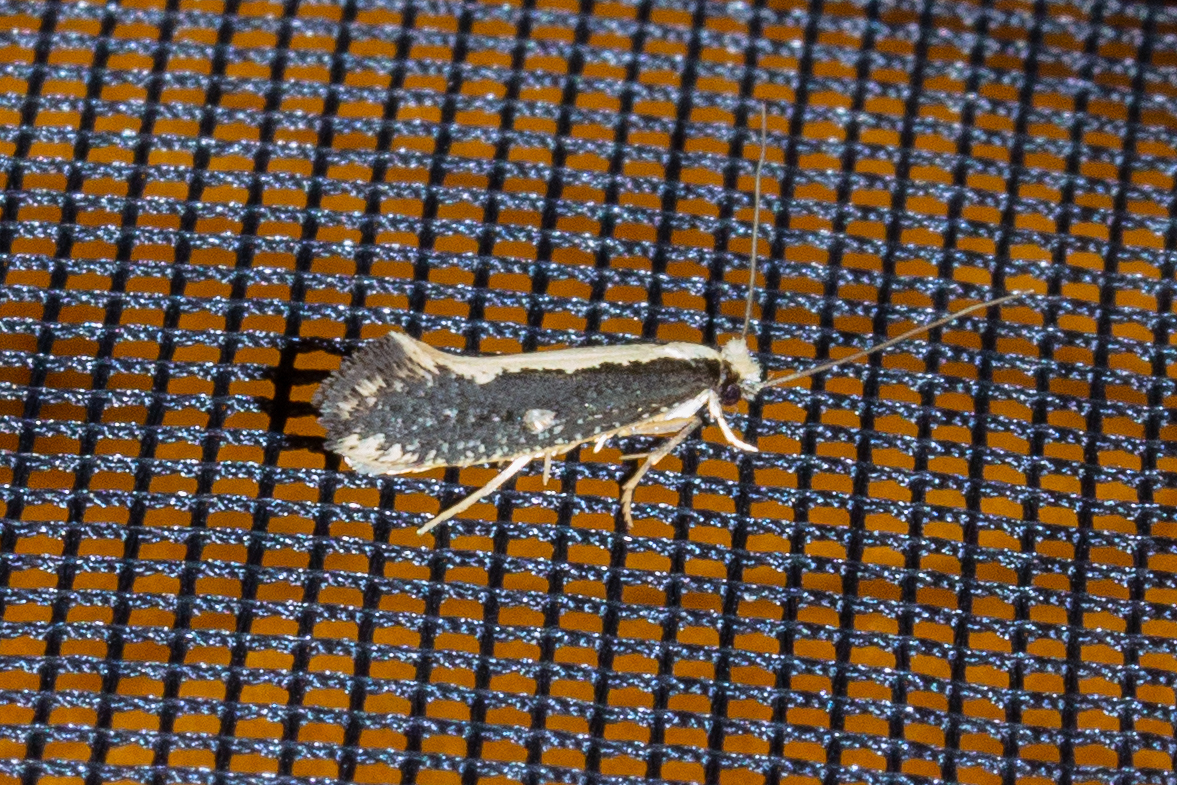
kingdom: Animalia
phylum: Arthropoda
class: Insecta
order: Lepidoptera
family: Tineidae
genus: Monopis
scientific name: Monopis ethelella
